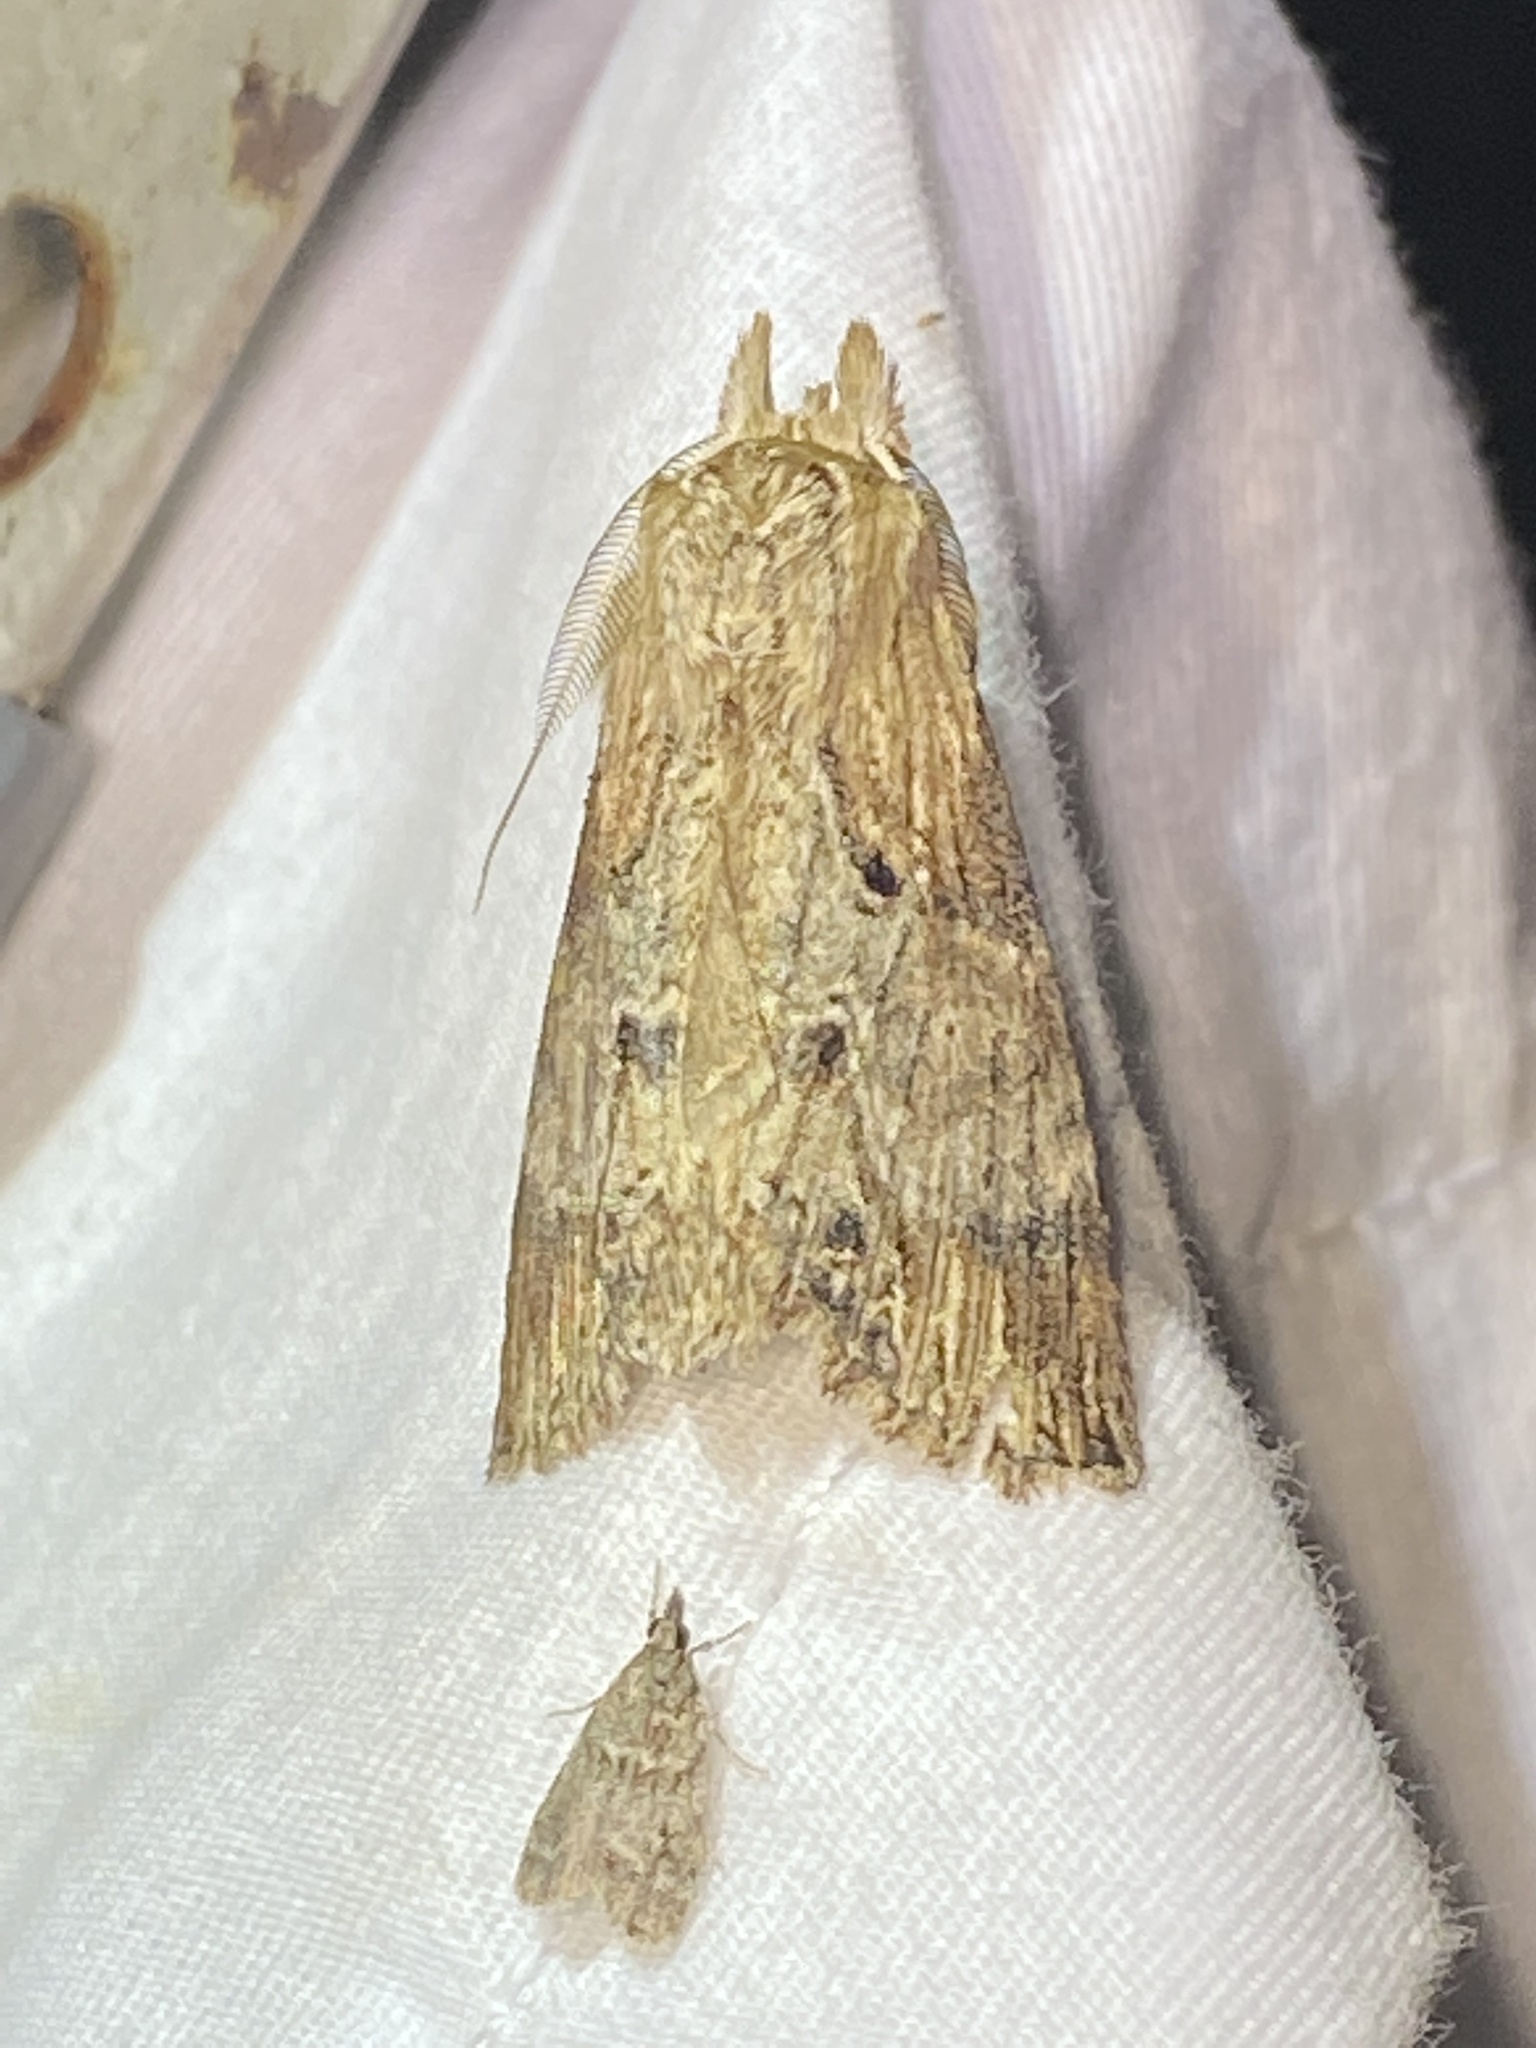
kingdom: Animalia
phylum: Arthropoda
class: Insecta
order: Lepidoptera
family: Notodontidae
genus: Dasylophia
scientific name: Dasylophia thyatiroides
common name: Gray-patched prominent
